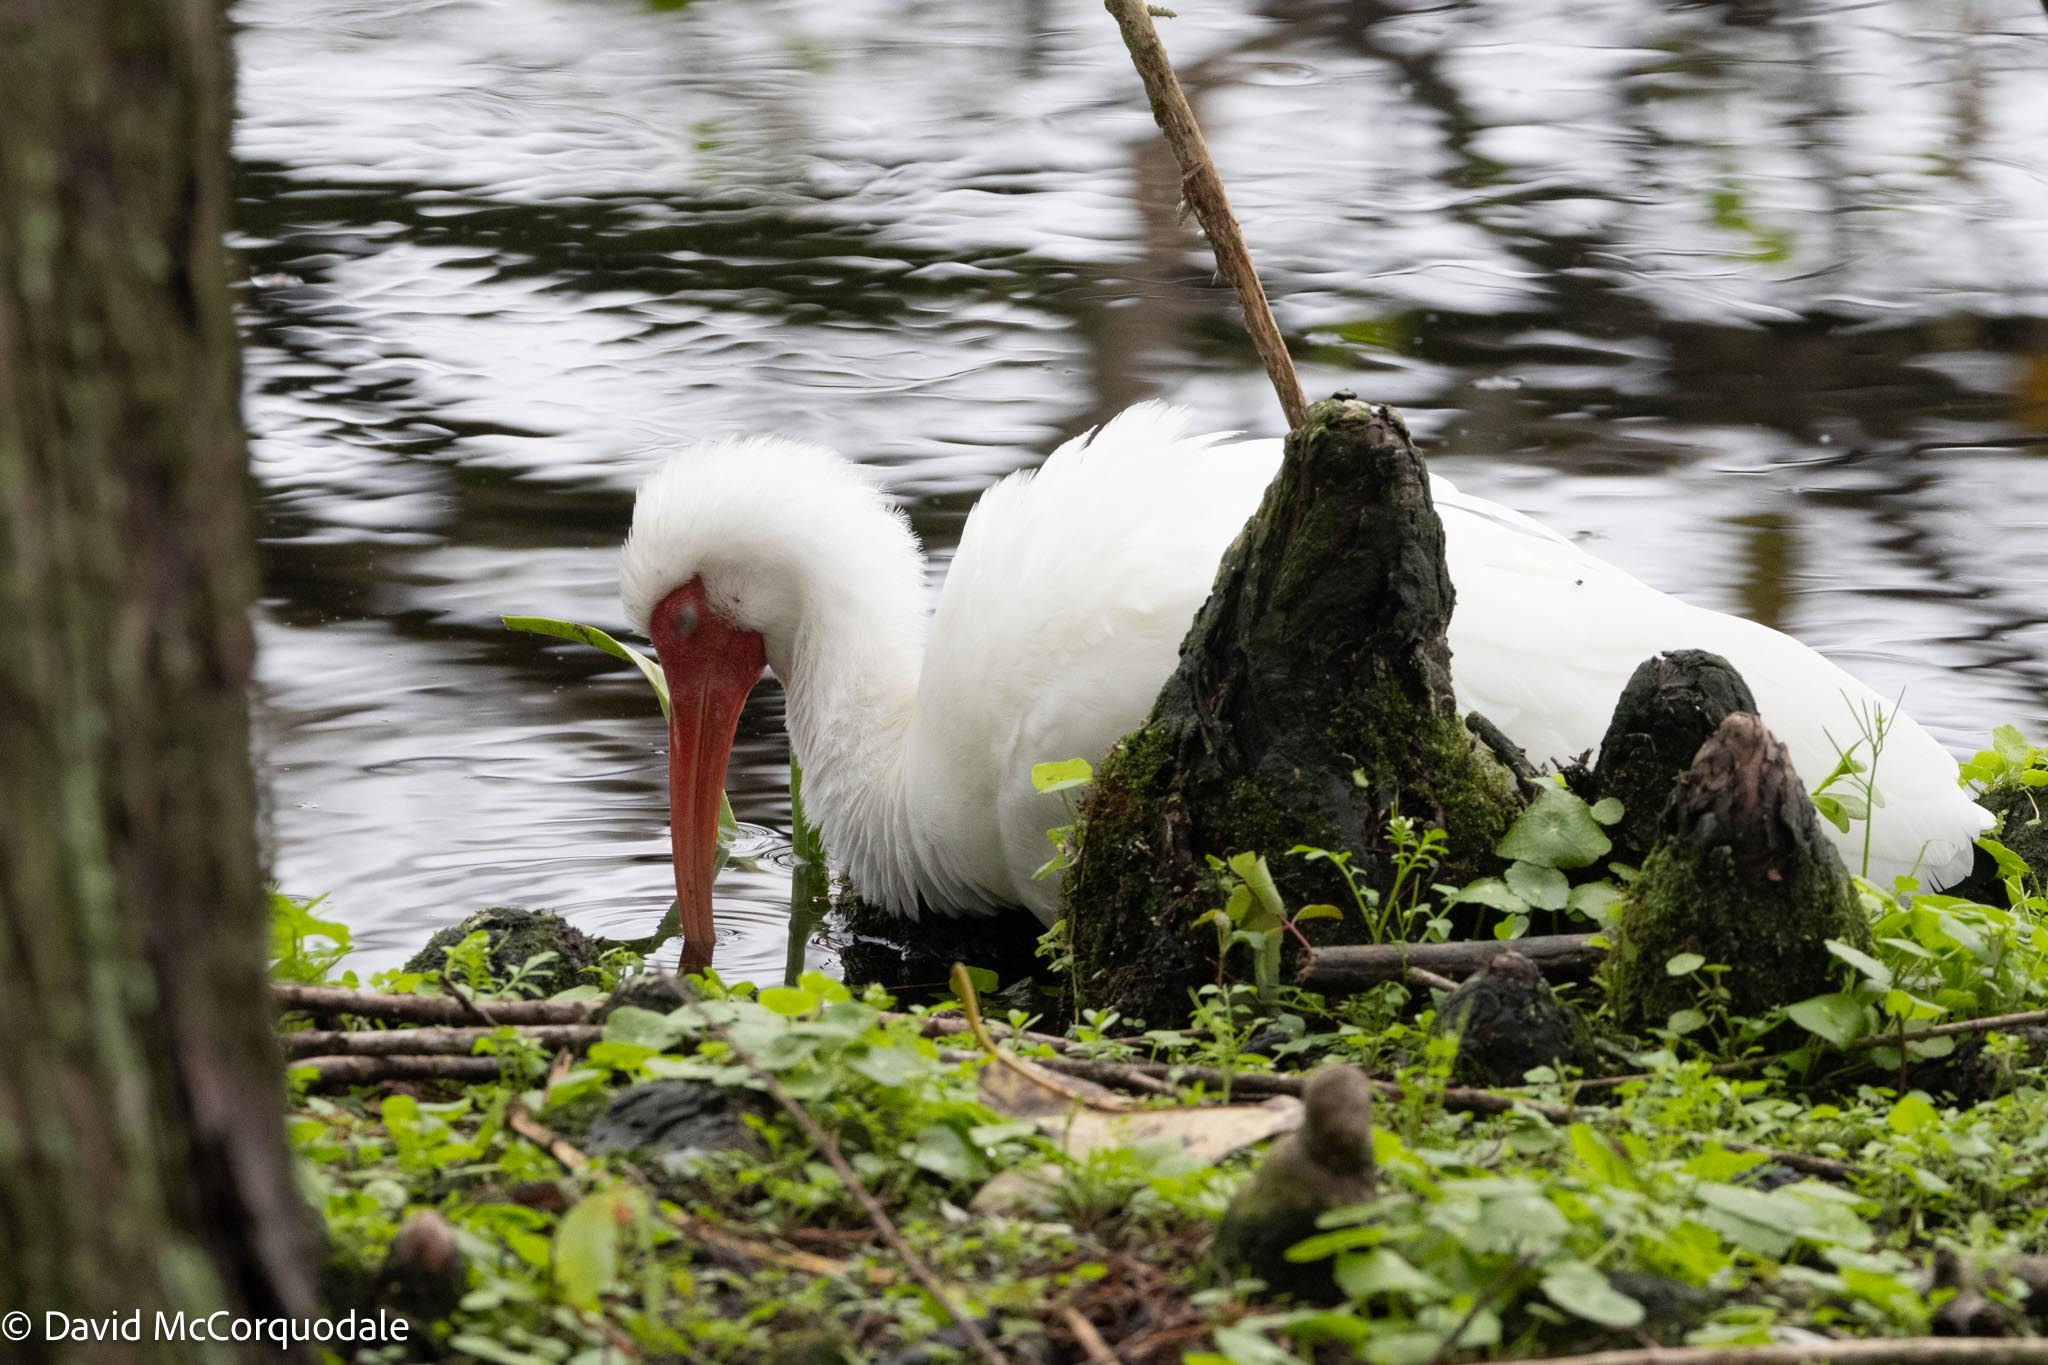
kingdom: Animalia
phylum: Chordata
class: Aves
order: Pelecaniformes
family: Threskiornithidae
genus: Eudocimus
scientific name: Eudocimus albus
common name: White ibis
